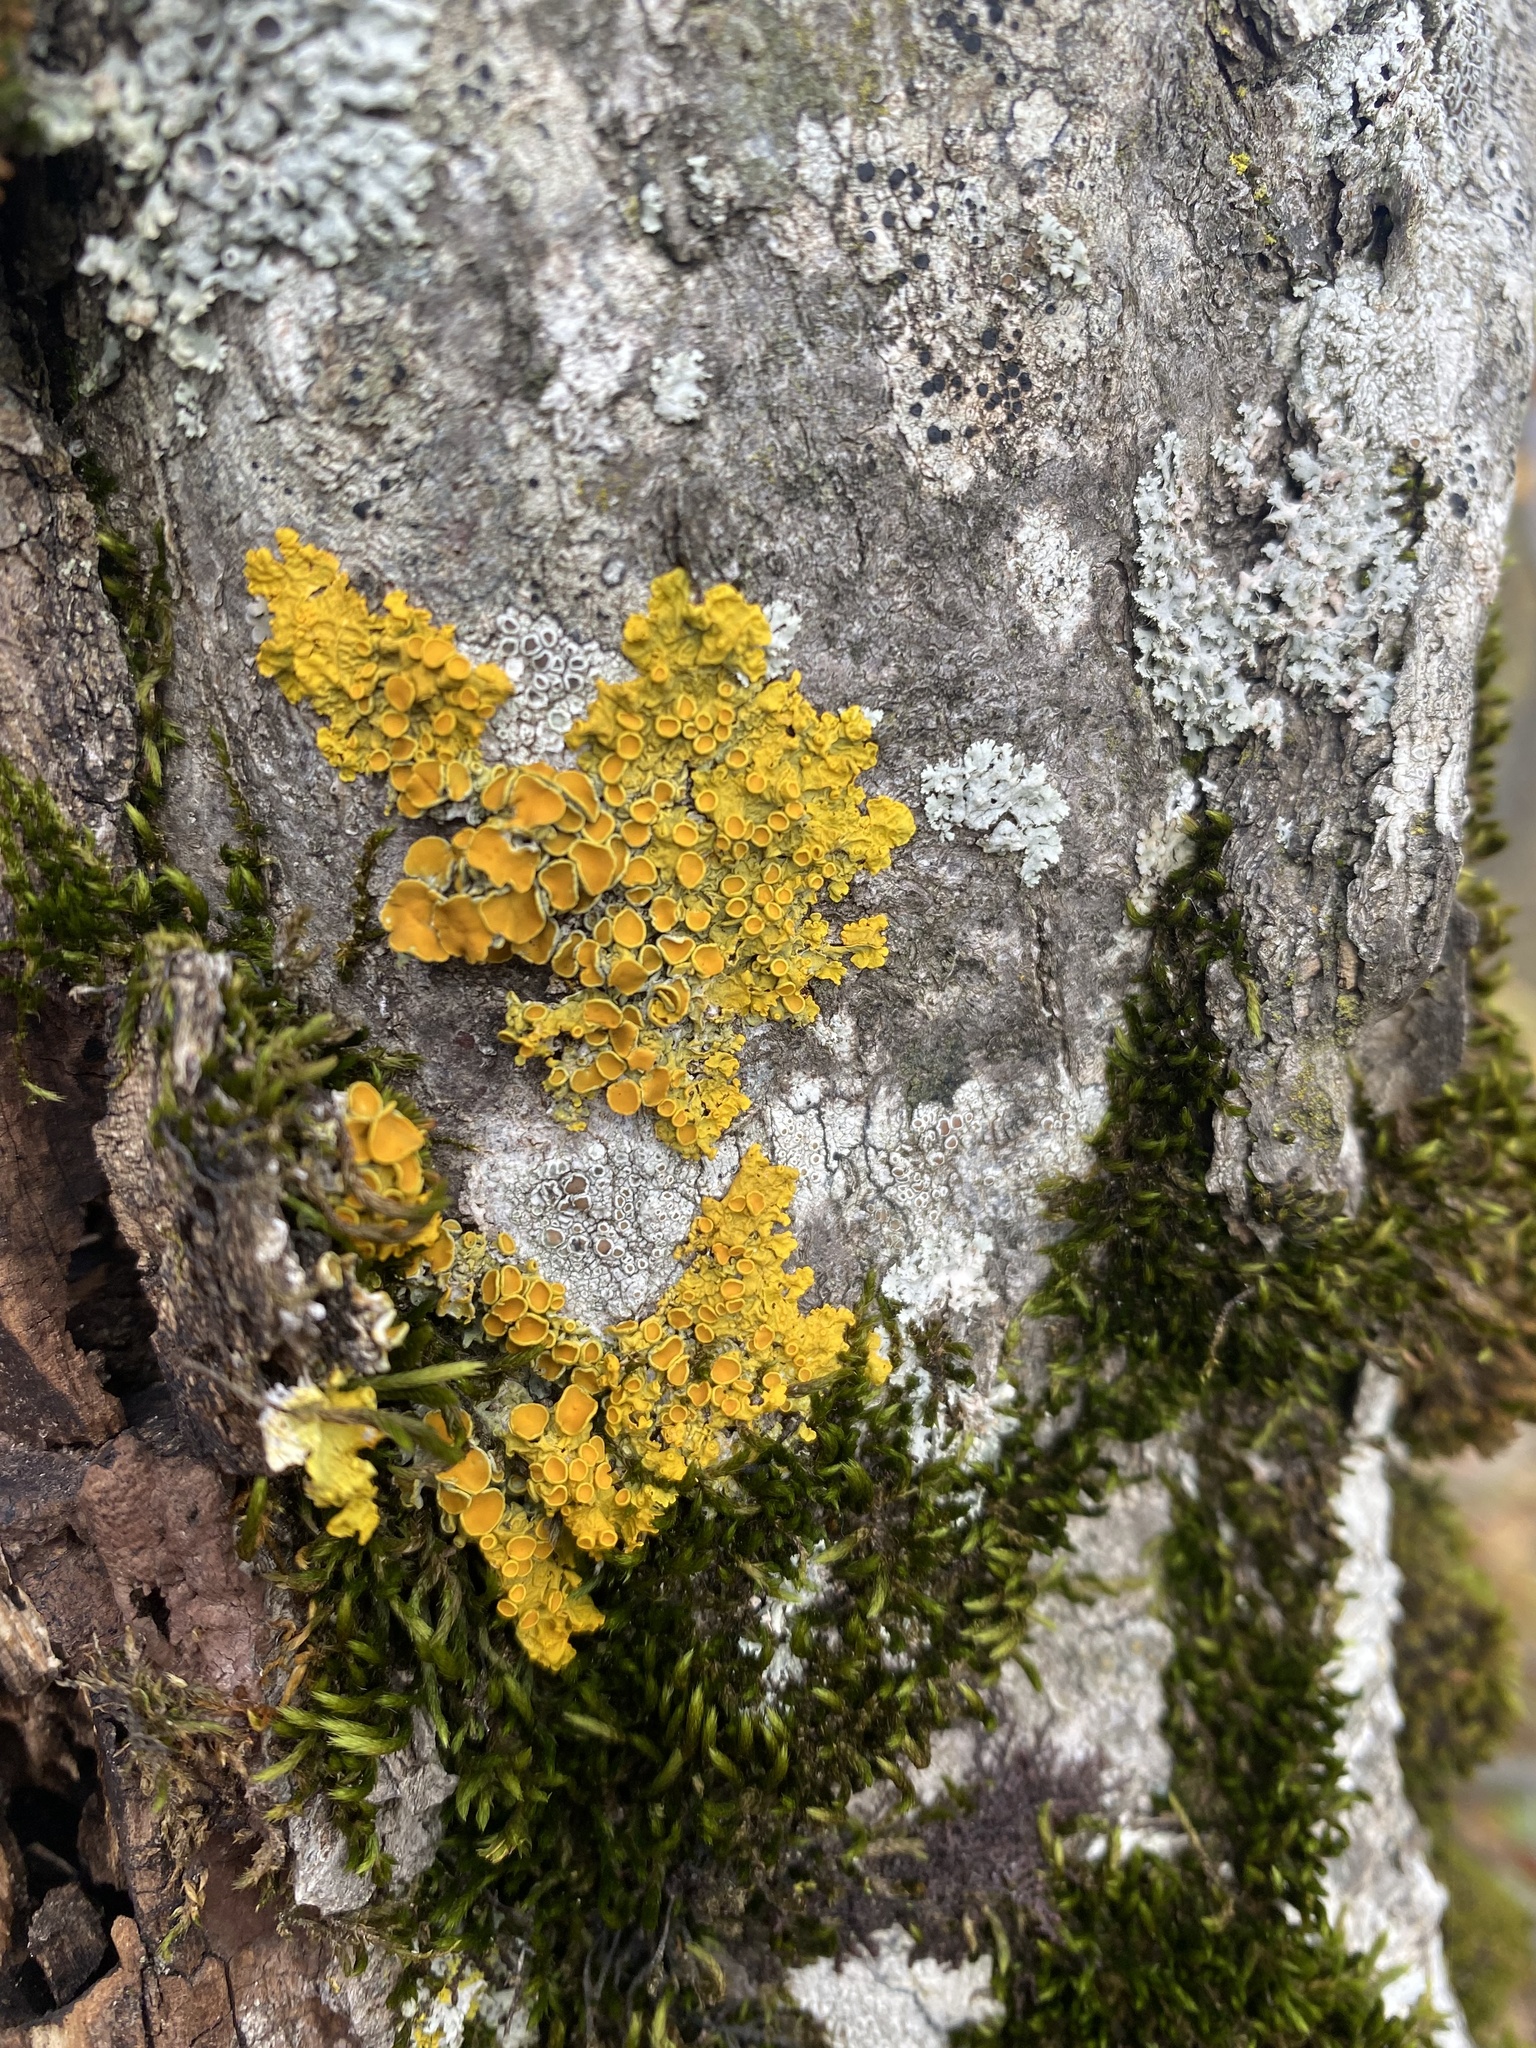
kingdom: Fungi
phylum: Ascomycota
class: Lecanoromycetes
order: Teloschistales
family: Teloschistaceae
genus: Xanthoria
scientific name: Xanthoria parietina
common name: Common orange lichen
